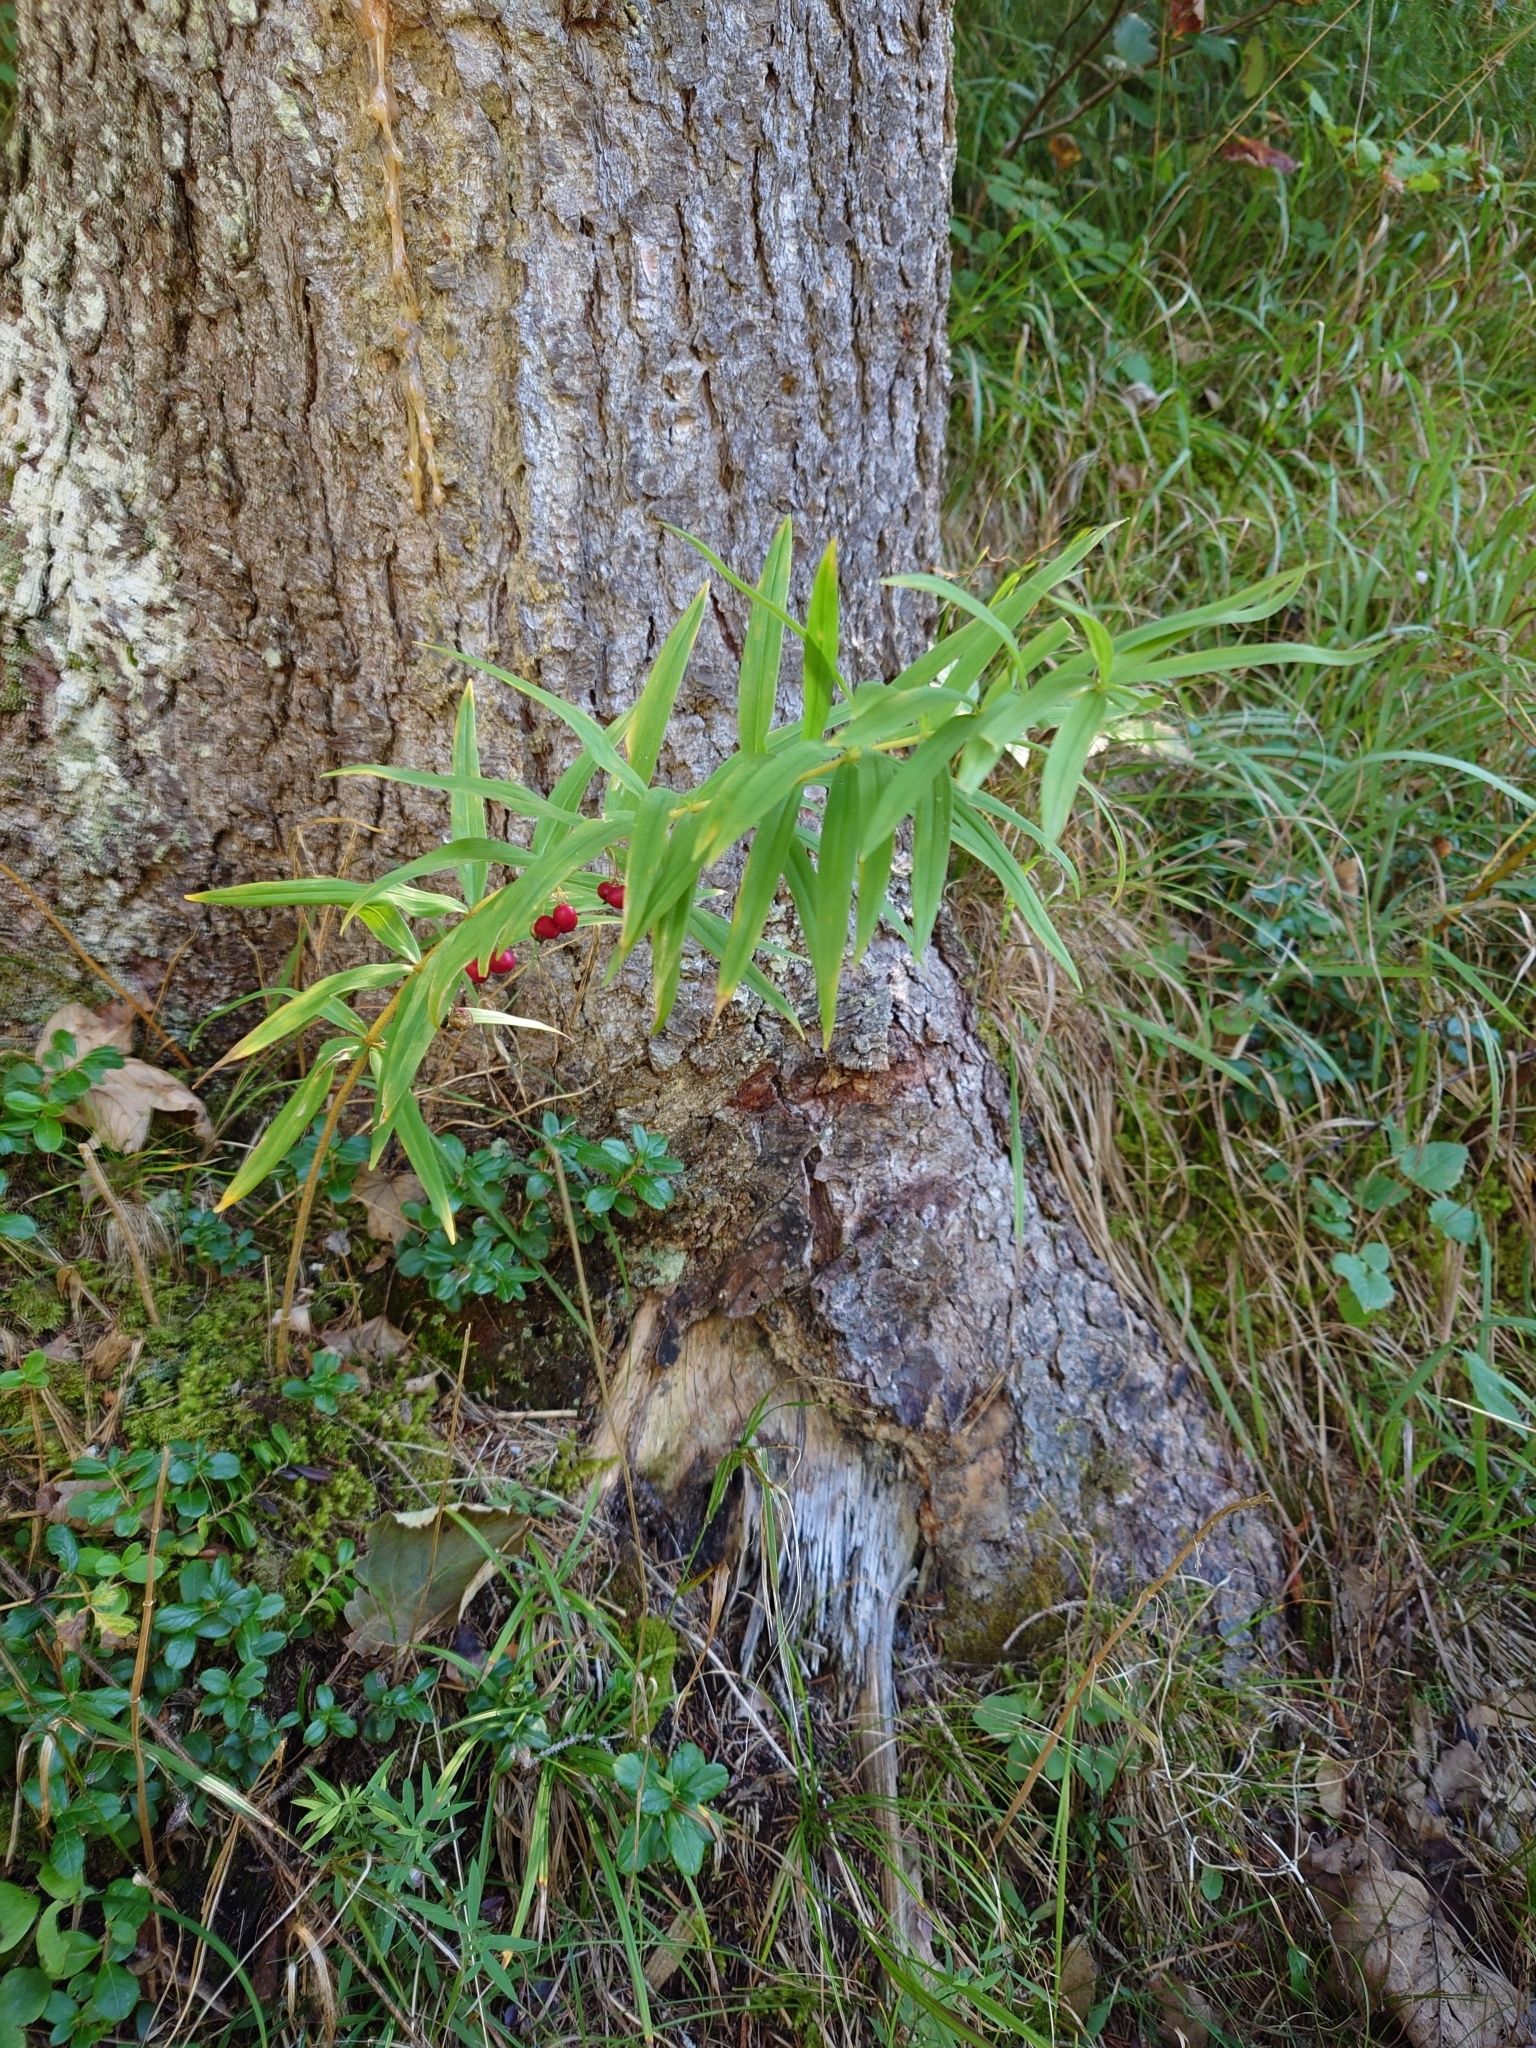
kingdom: Plantae
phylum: Tracheophyta
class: Liliopsida
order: Asparagales
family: Asparagaceae
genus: Polygonatum
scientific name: Polygonatum verticillatum
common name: Whorled solomon's-seal
